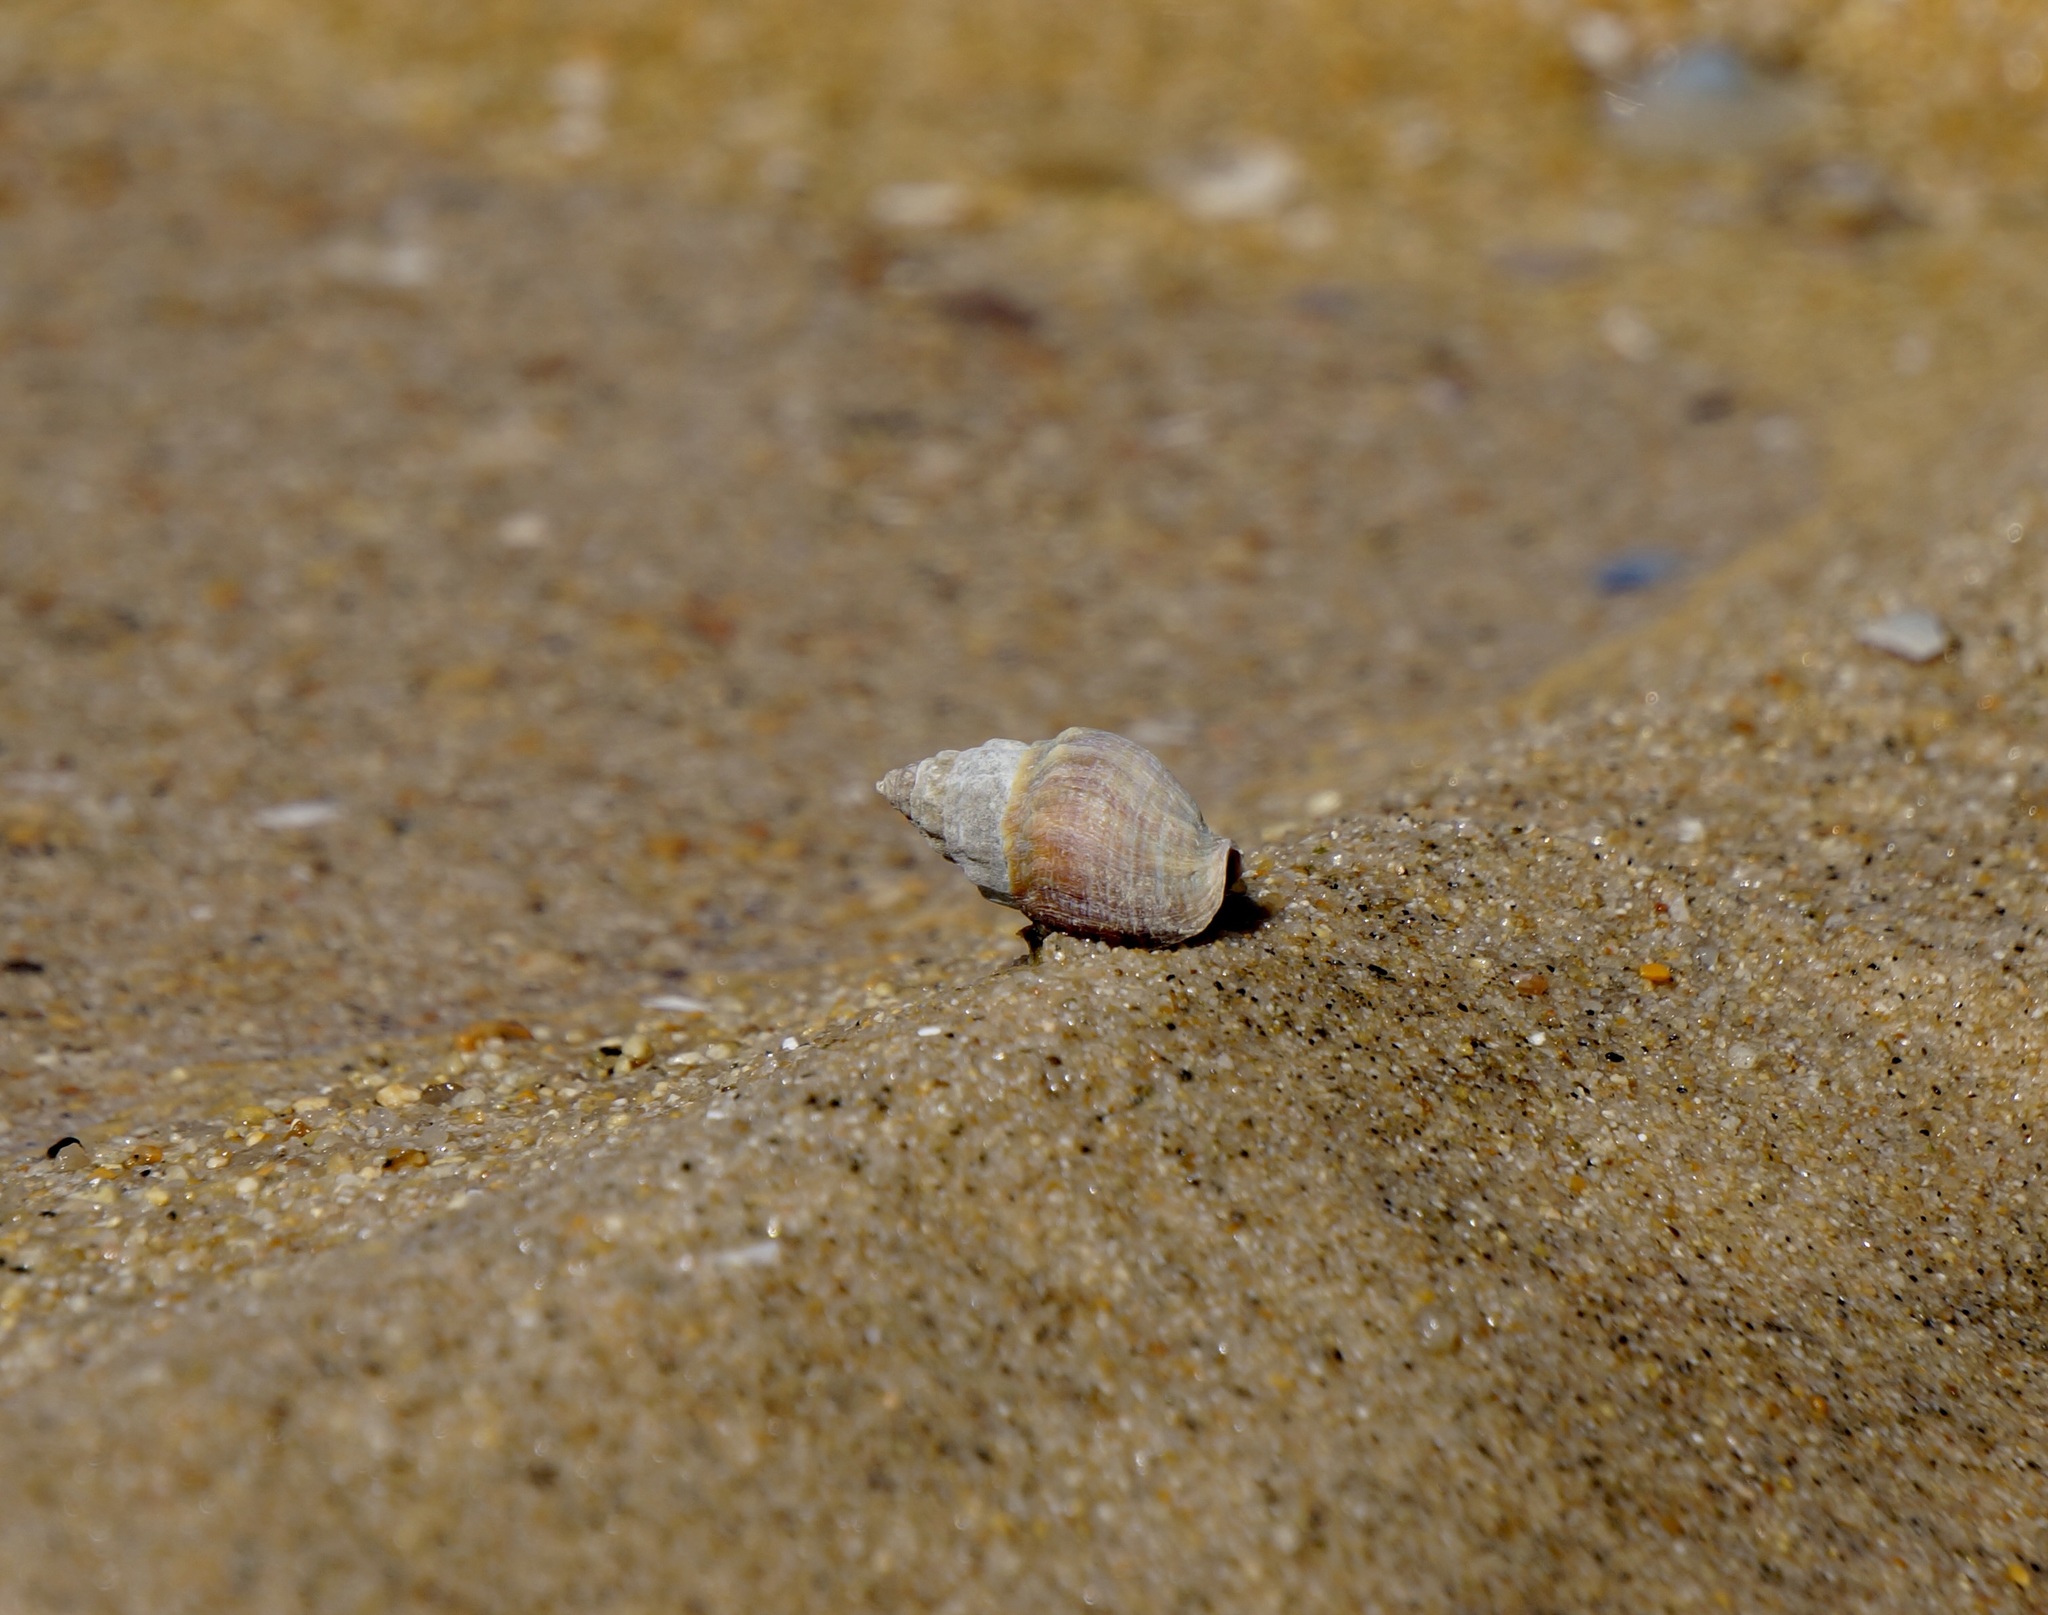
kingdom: Animalia
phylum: Mollusca
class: Gastropoda
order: Neogastropoda
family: Cominellidae
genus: Cominella
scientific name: Cominella glandiformis
